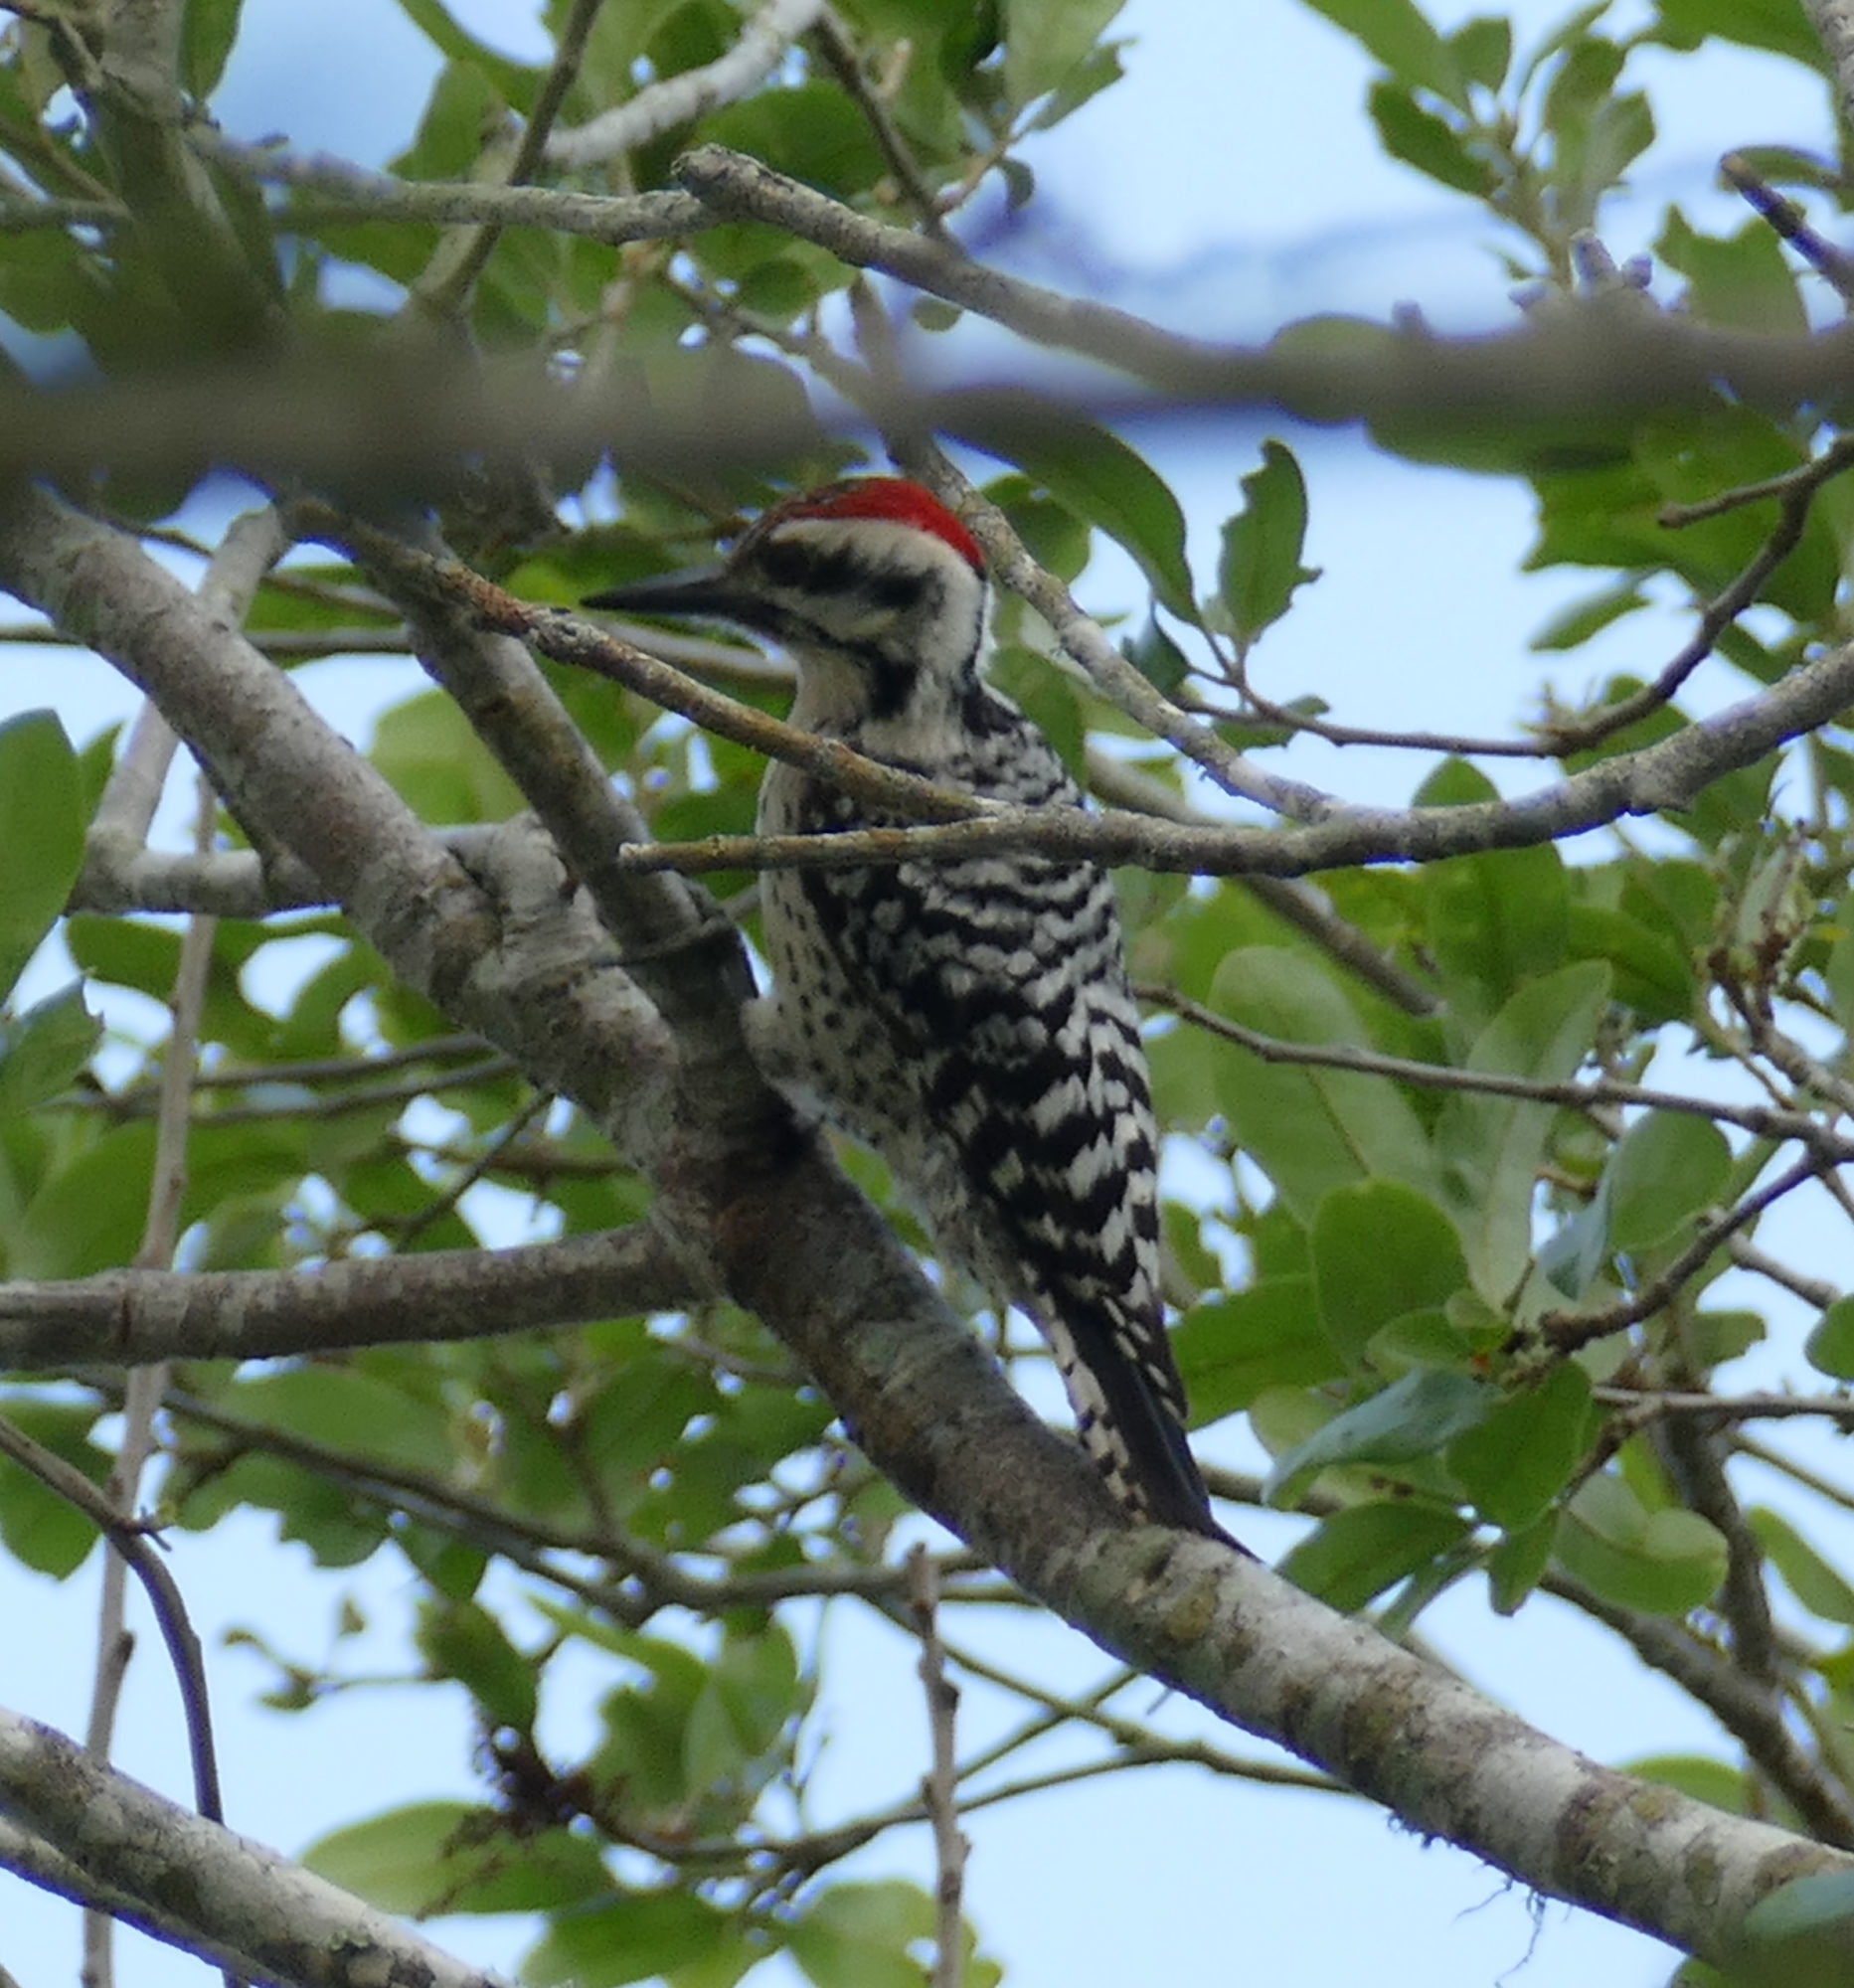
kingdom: Animalia
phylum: Chordata
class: Aves
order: Piciformes
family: Picidae
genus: Dryobates
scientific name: Dryobates scalaris
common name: Ladder-backed woodpecker
